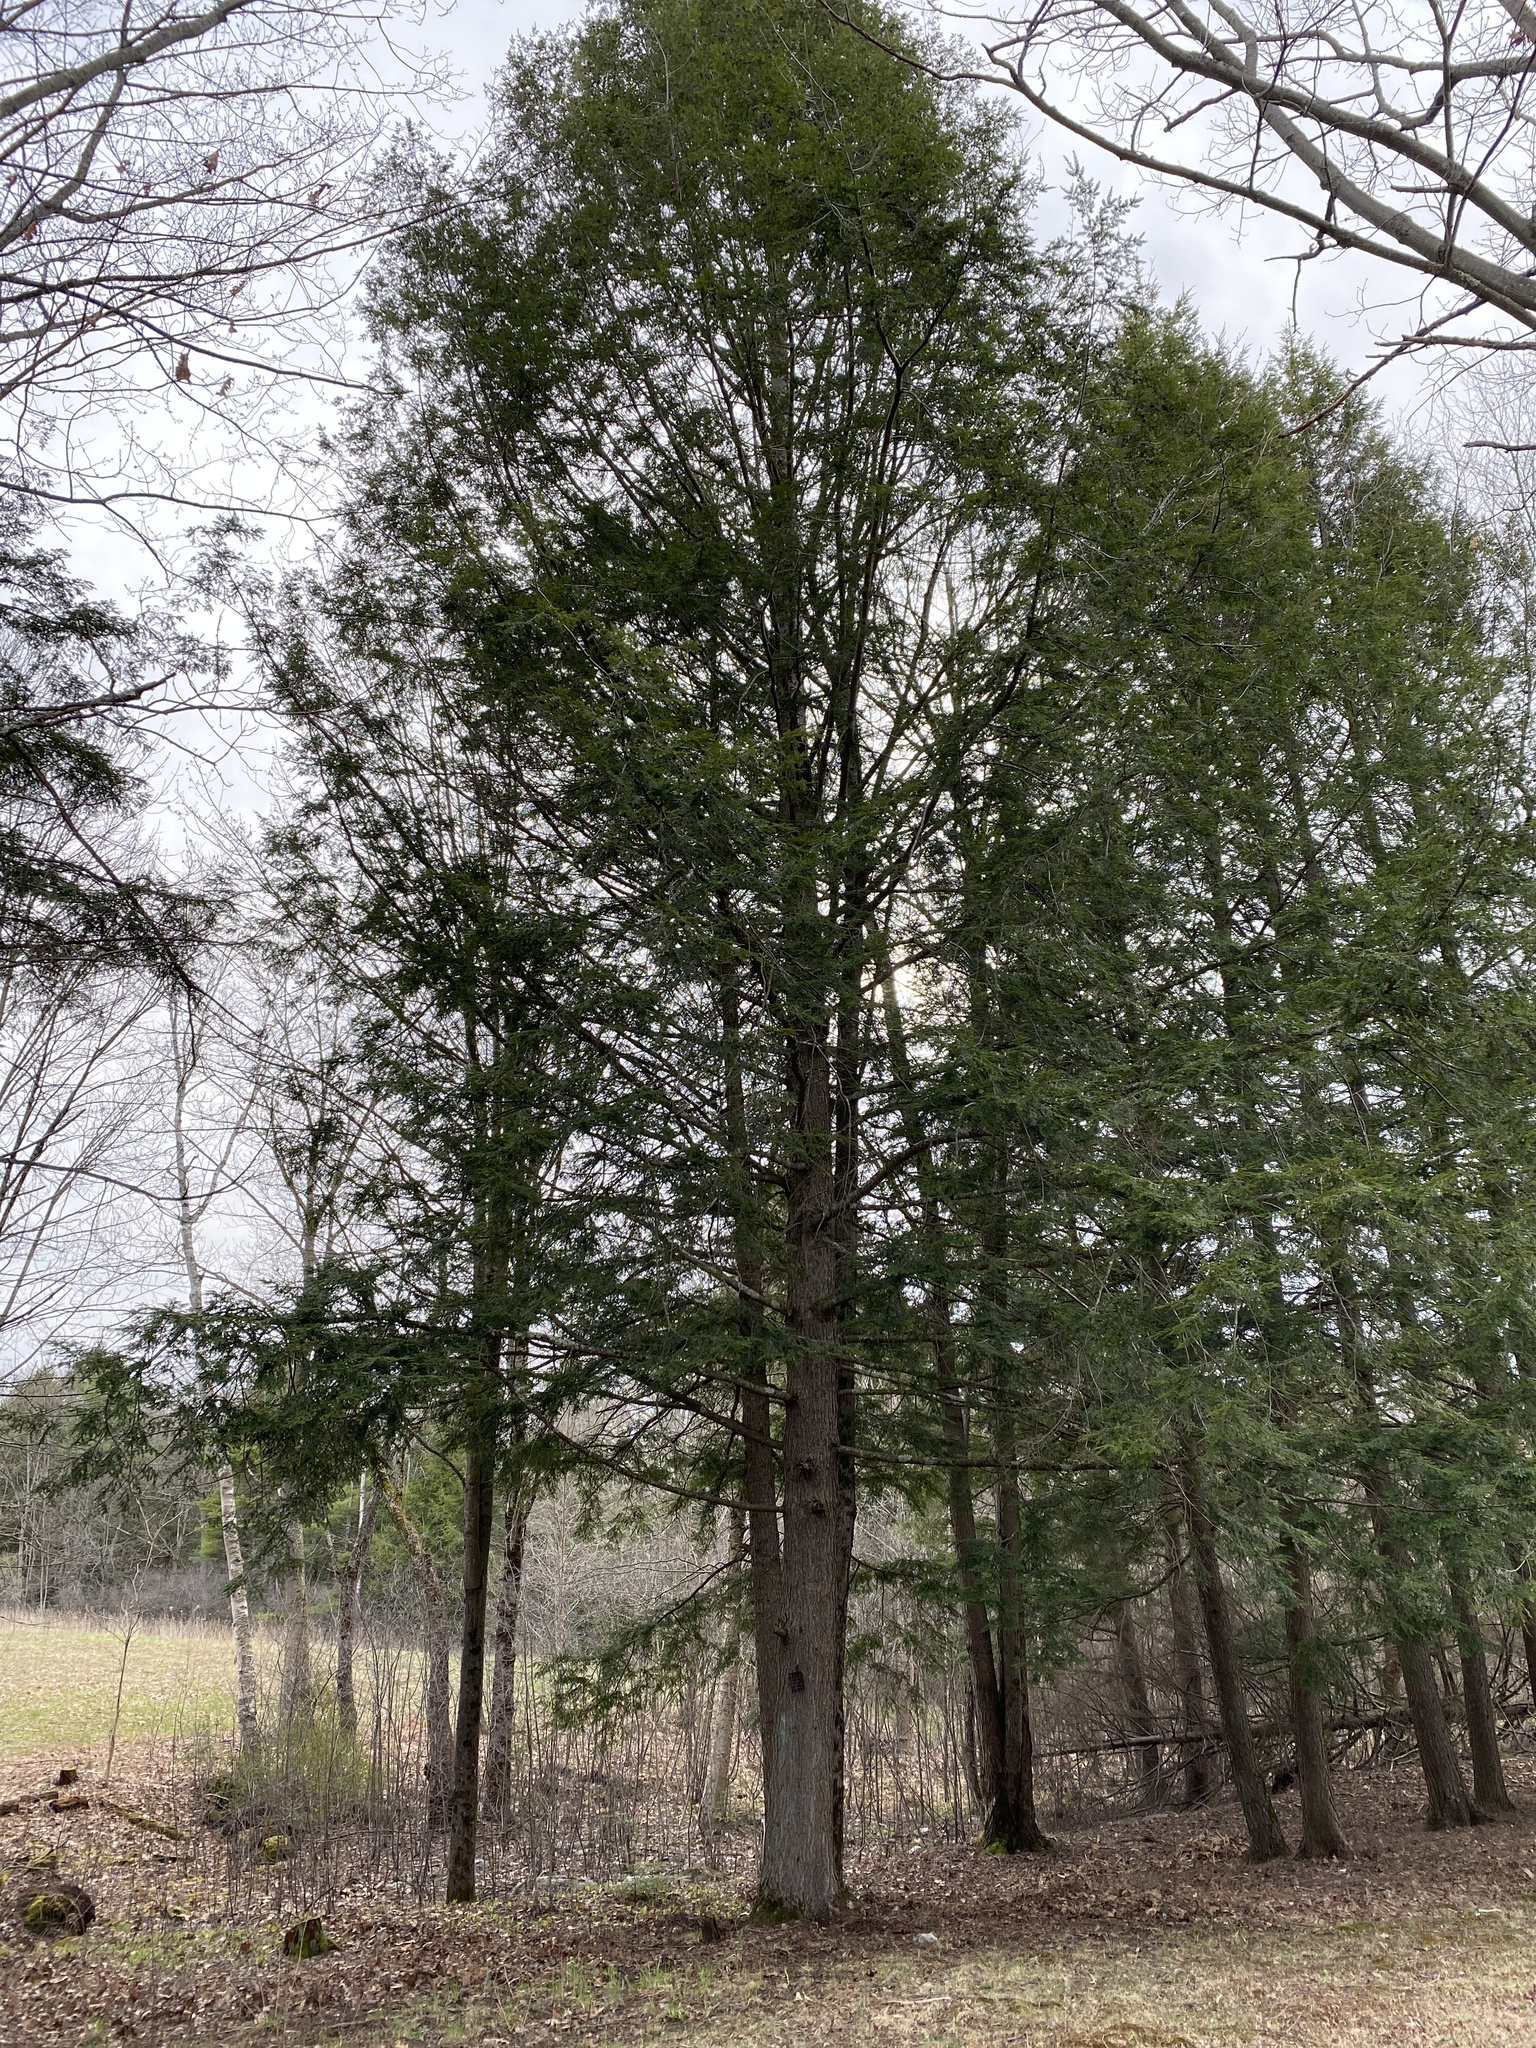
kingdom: Plantae
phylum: Tracheophyta
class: Pinopsida
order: Pinales
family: Pinaceae
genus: Tsuga
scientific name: Tsuga canadensis
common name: Eastern hemlock
